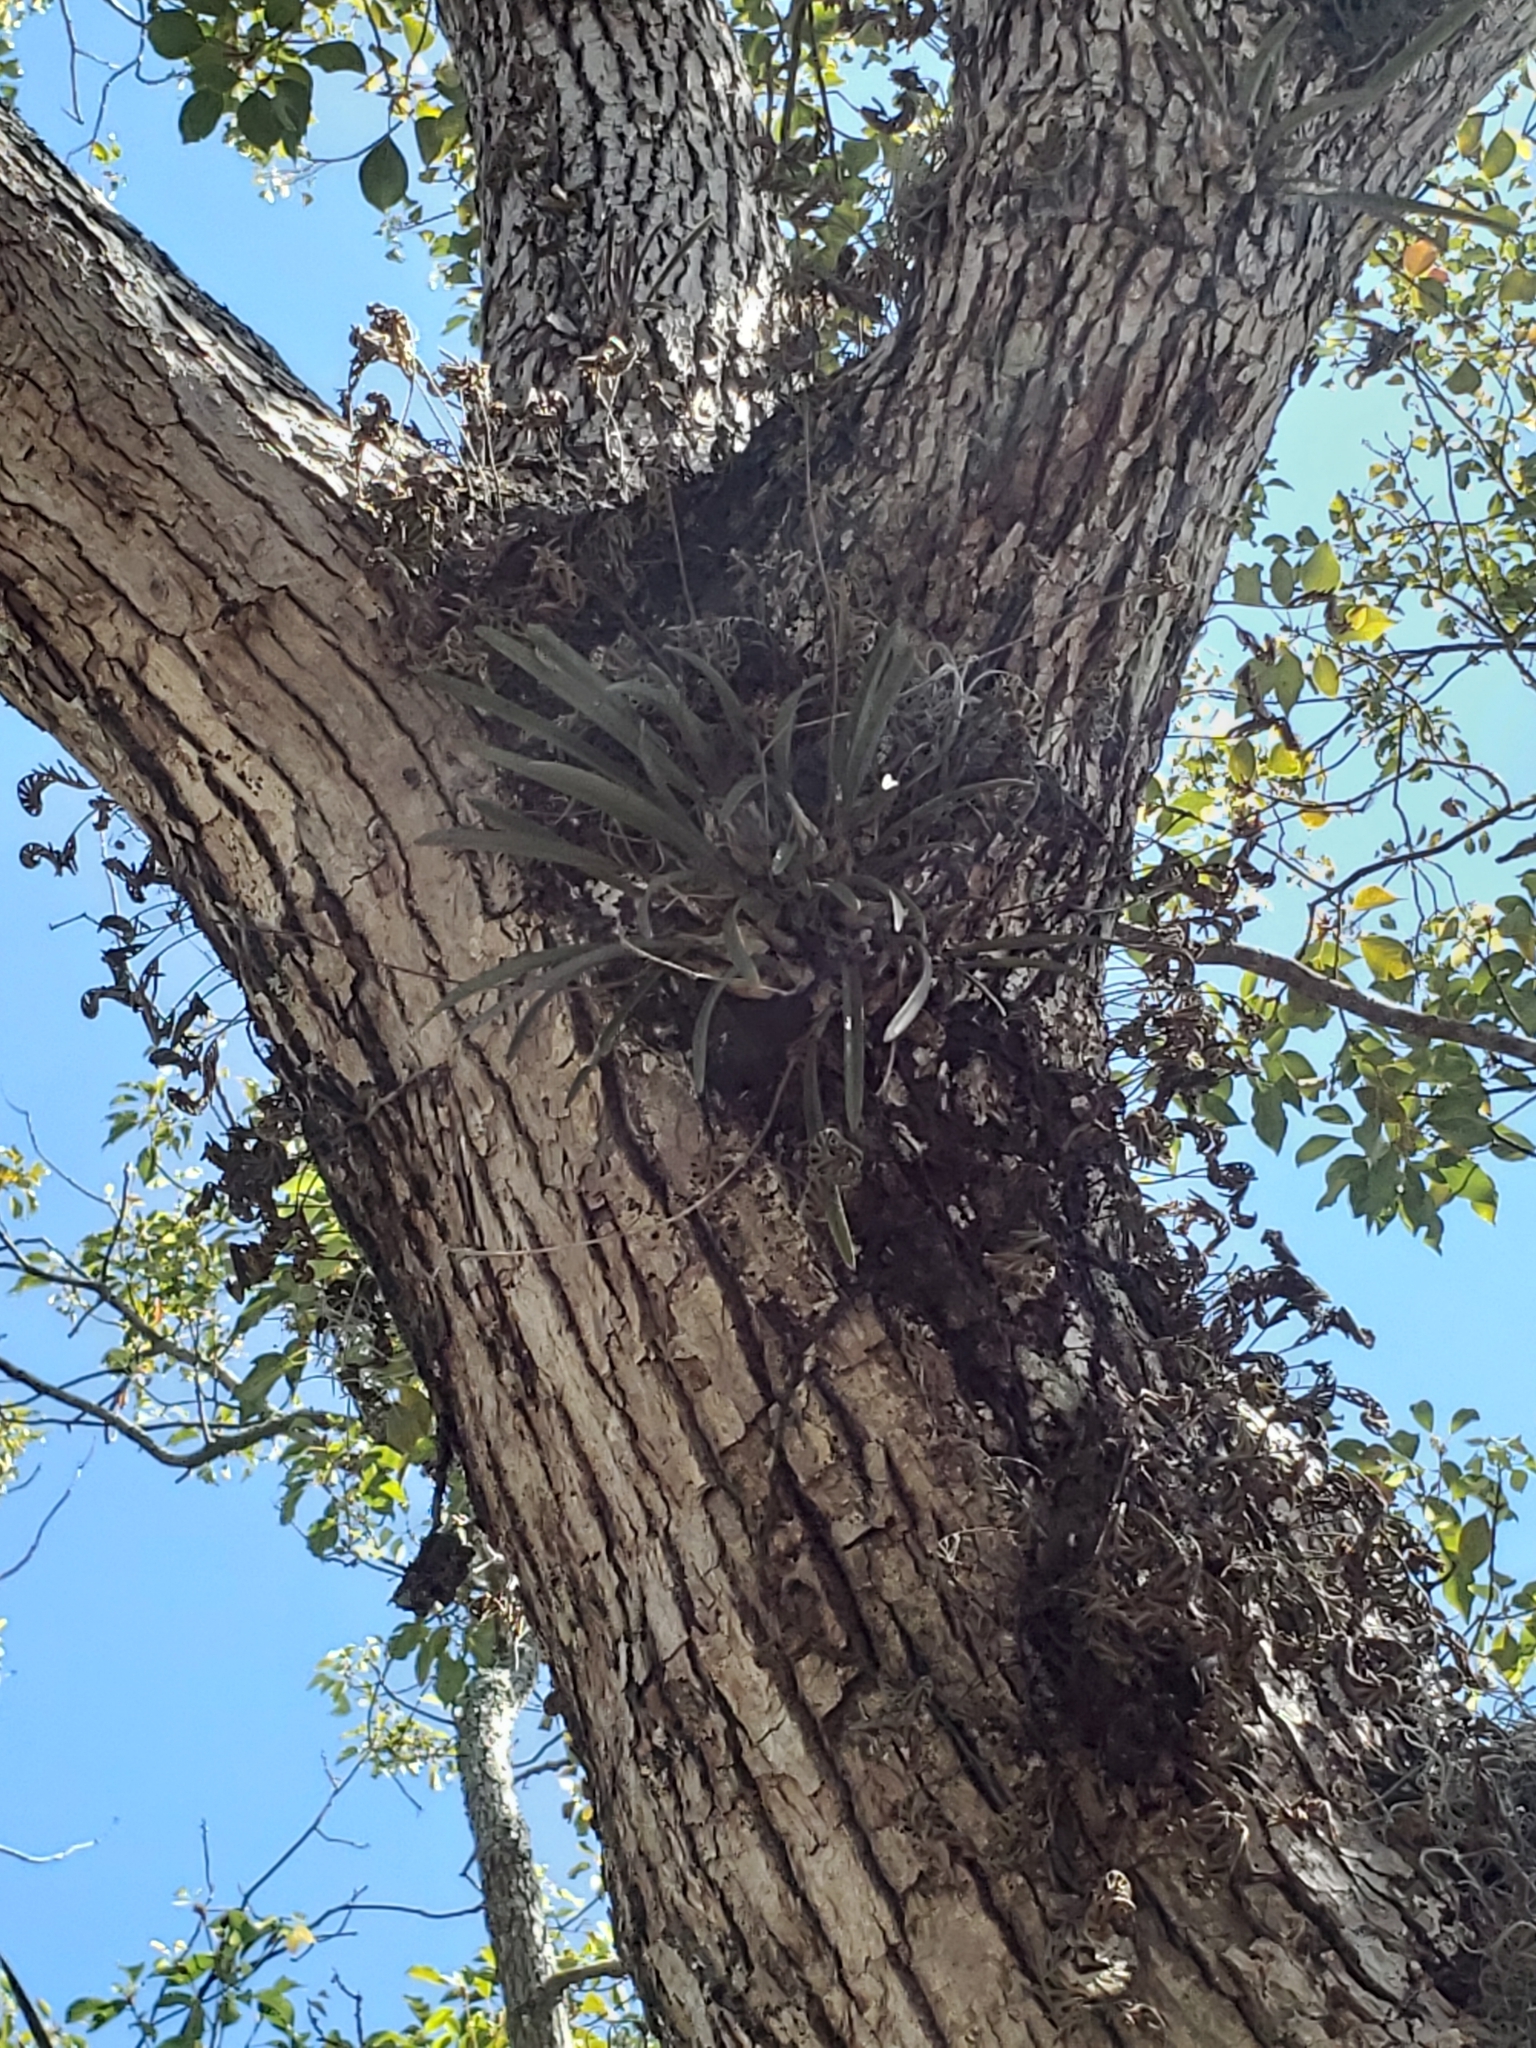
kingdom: Plantae
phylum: Tracheophyta
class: Liliopsida
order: Asparagales
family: Orchidaceae
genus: Encyclia
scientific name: Encyclia tampensis
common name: Florida butterfly orchid
